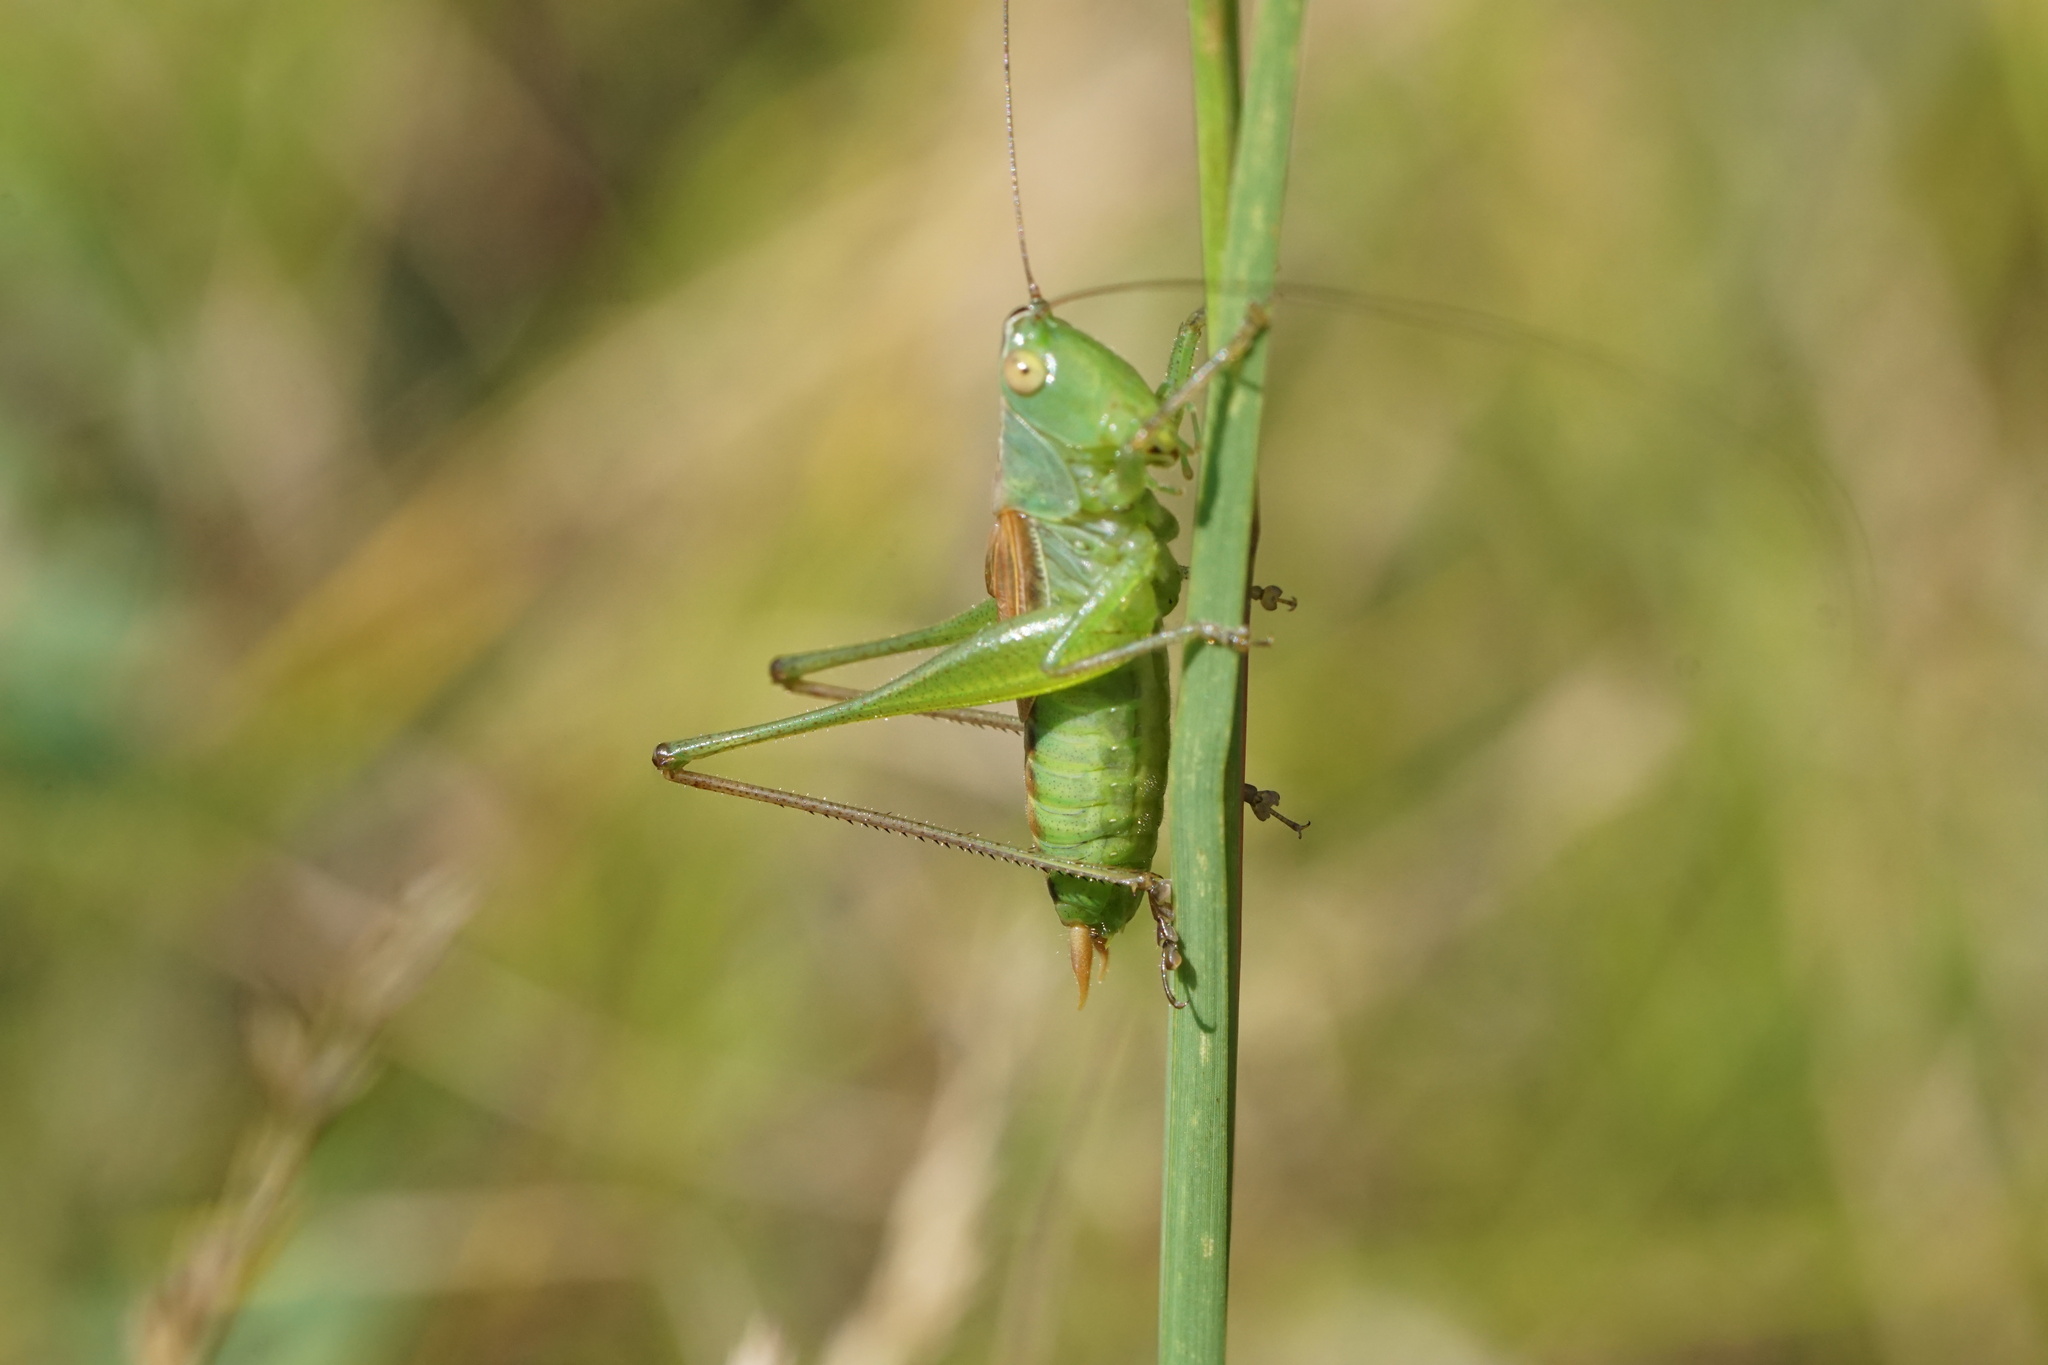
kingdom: Animalia
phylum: Arthropoda
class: Insecta
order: Orthoptera
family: Tettigoniidae
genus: Conocephalus
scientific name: Conocephalus strictus
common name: Straight-lanced katydid
